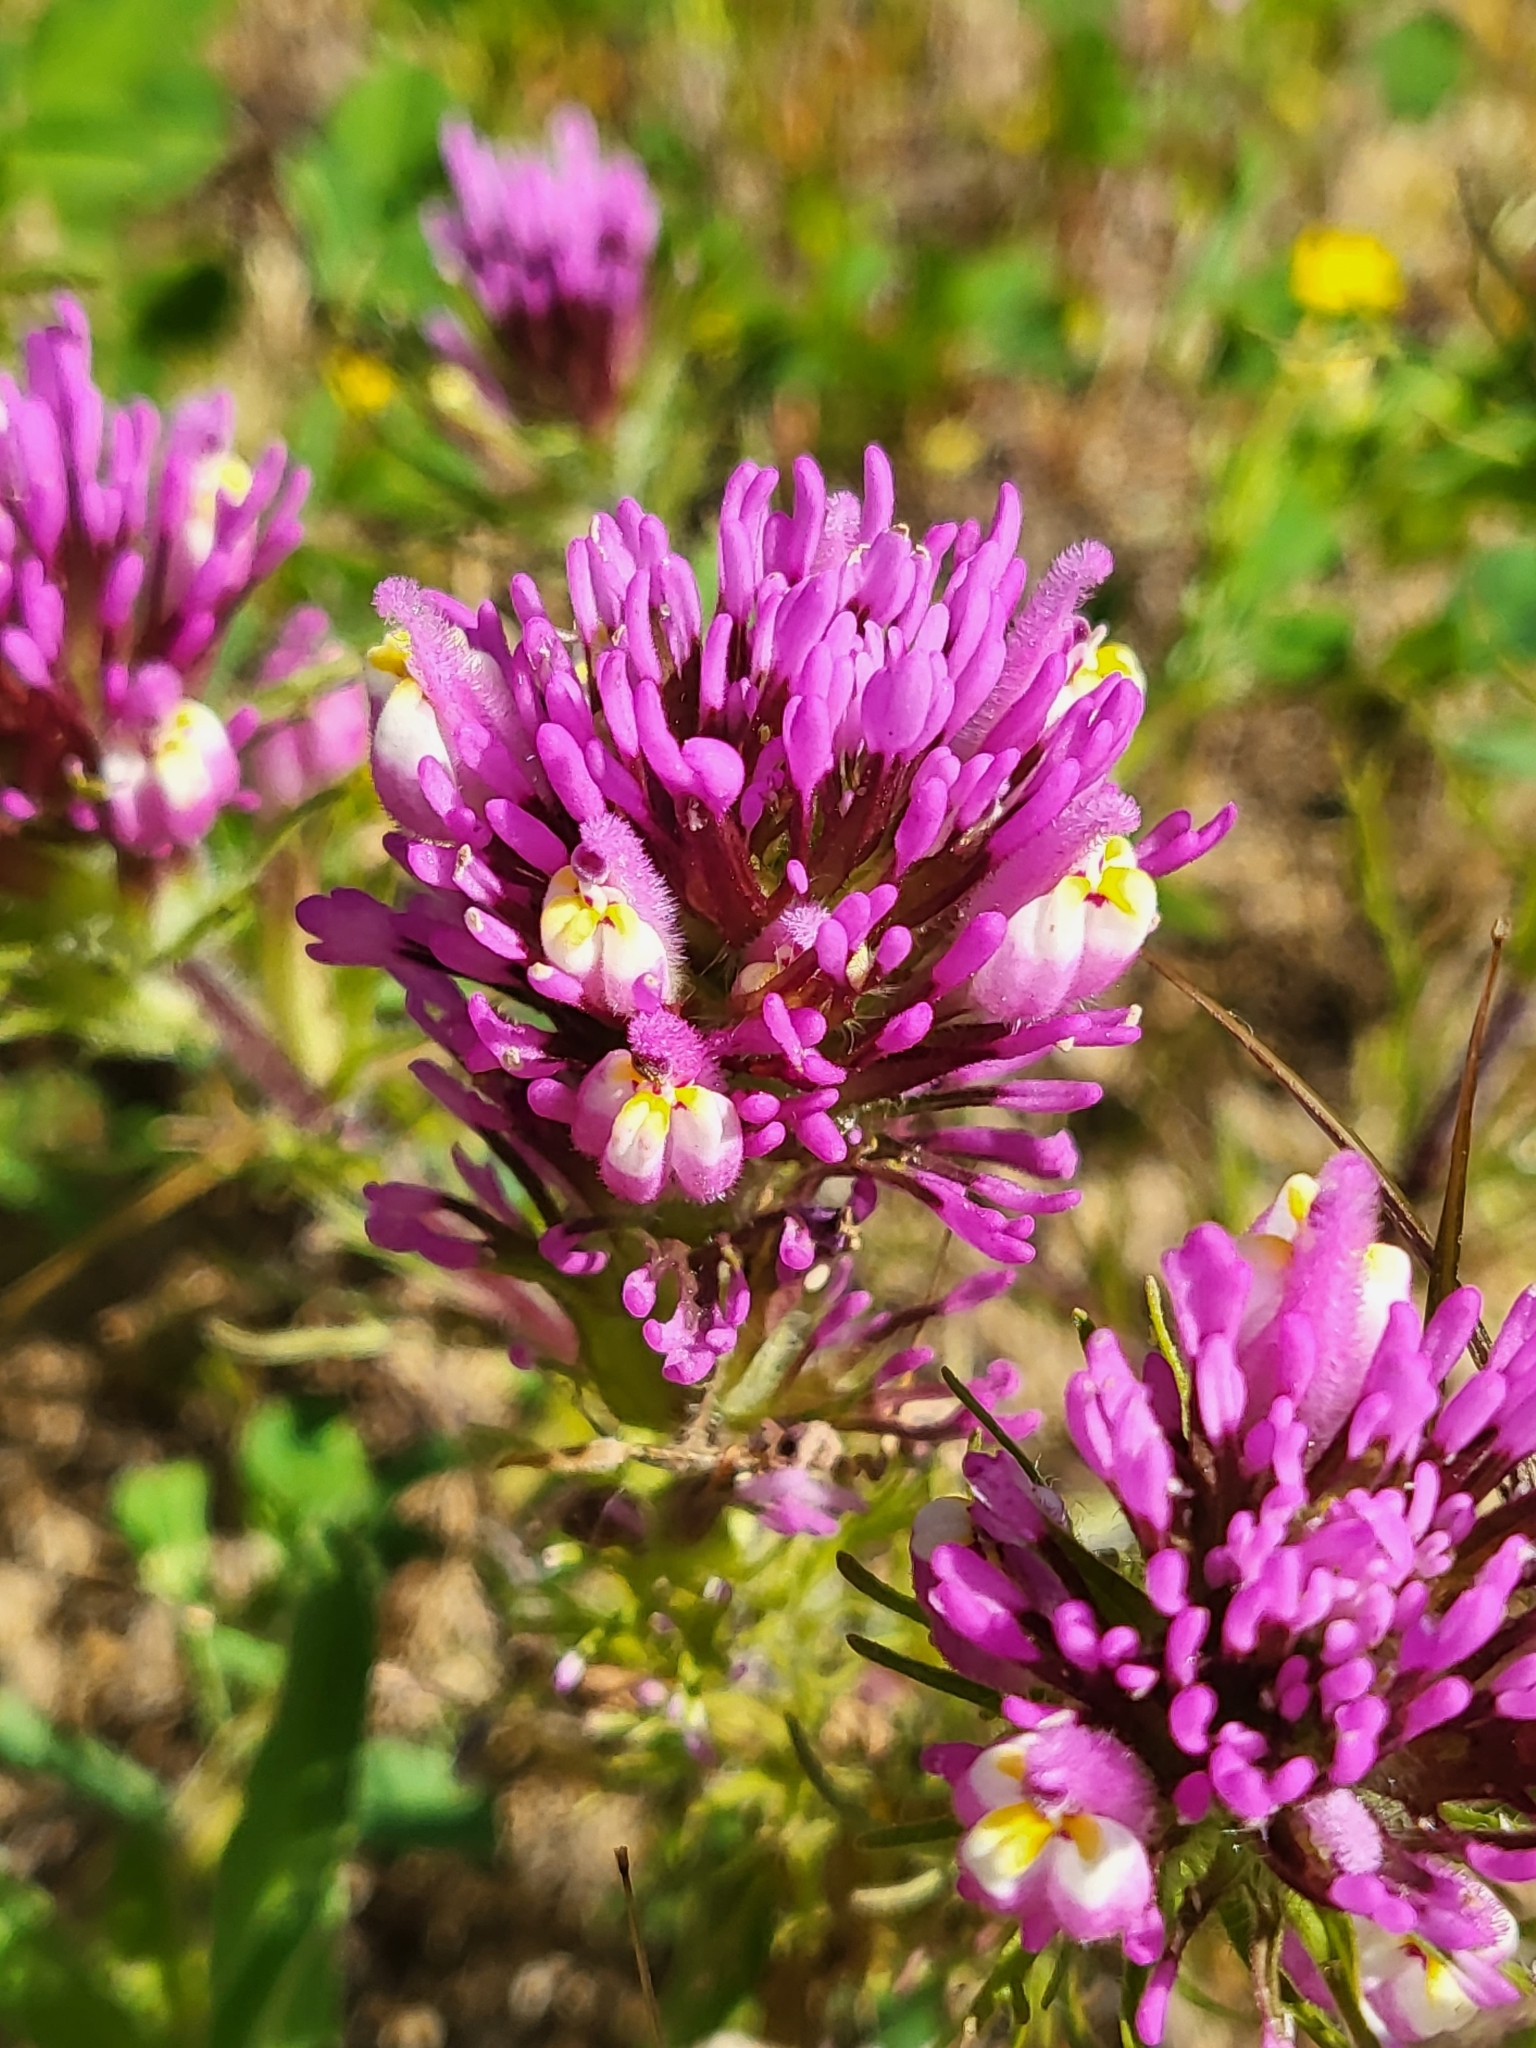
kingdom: Plantae
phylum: Tracheophyta
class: Magnoliopsida
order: Lamiales
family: Orobanchaceae
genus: Castilleja
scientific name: Castilleja exserta
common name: Purple owl-clover
